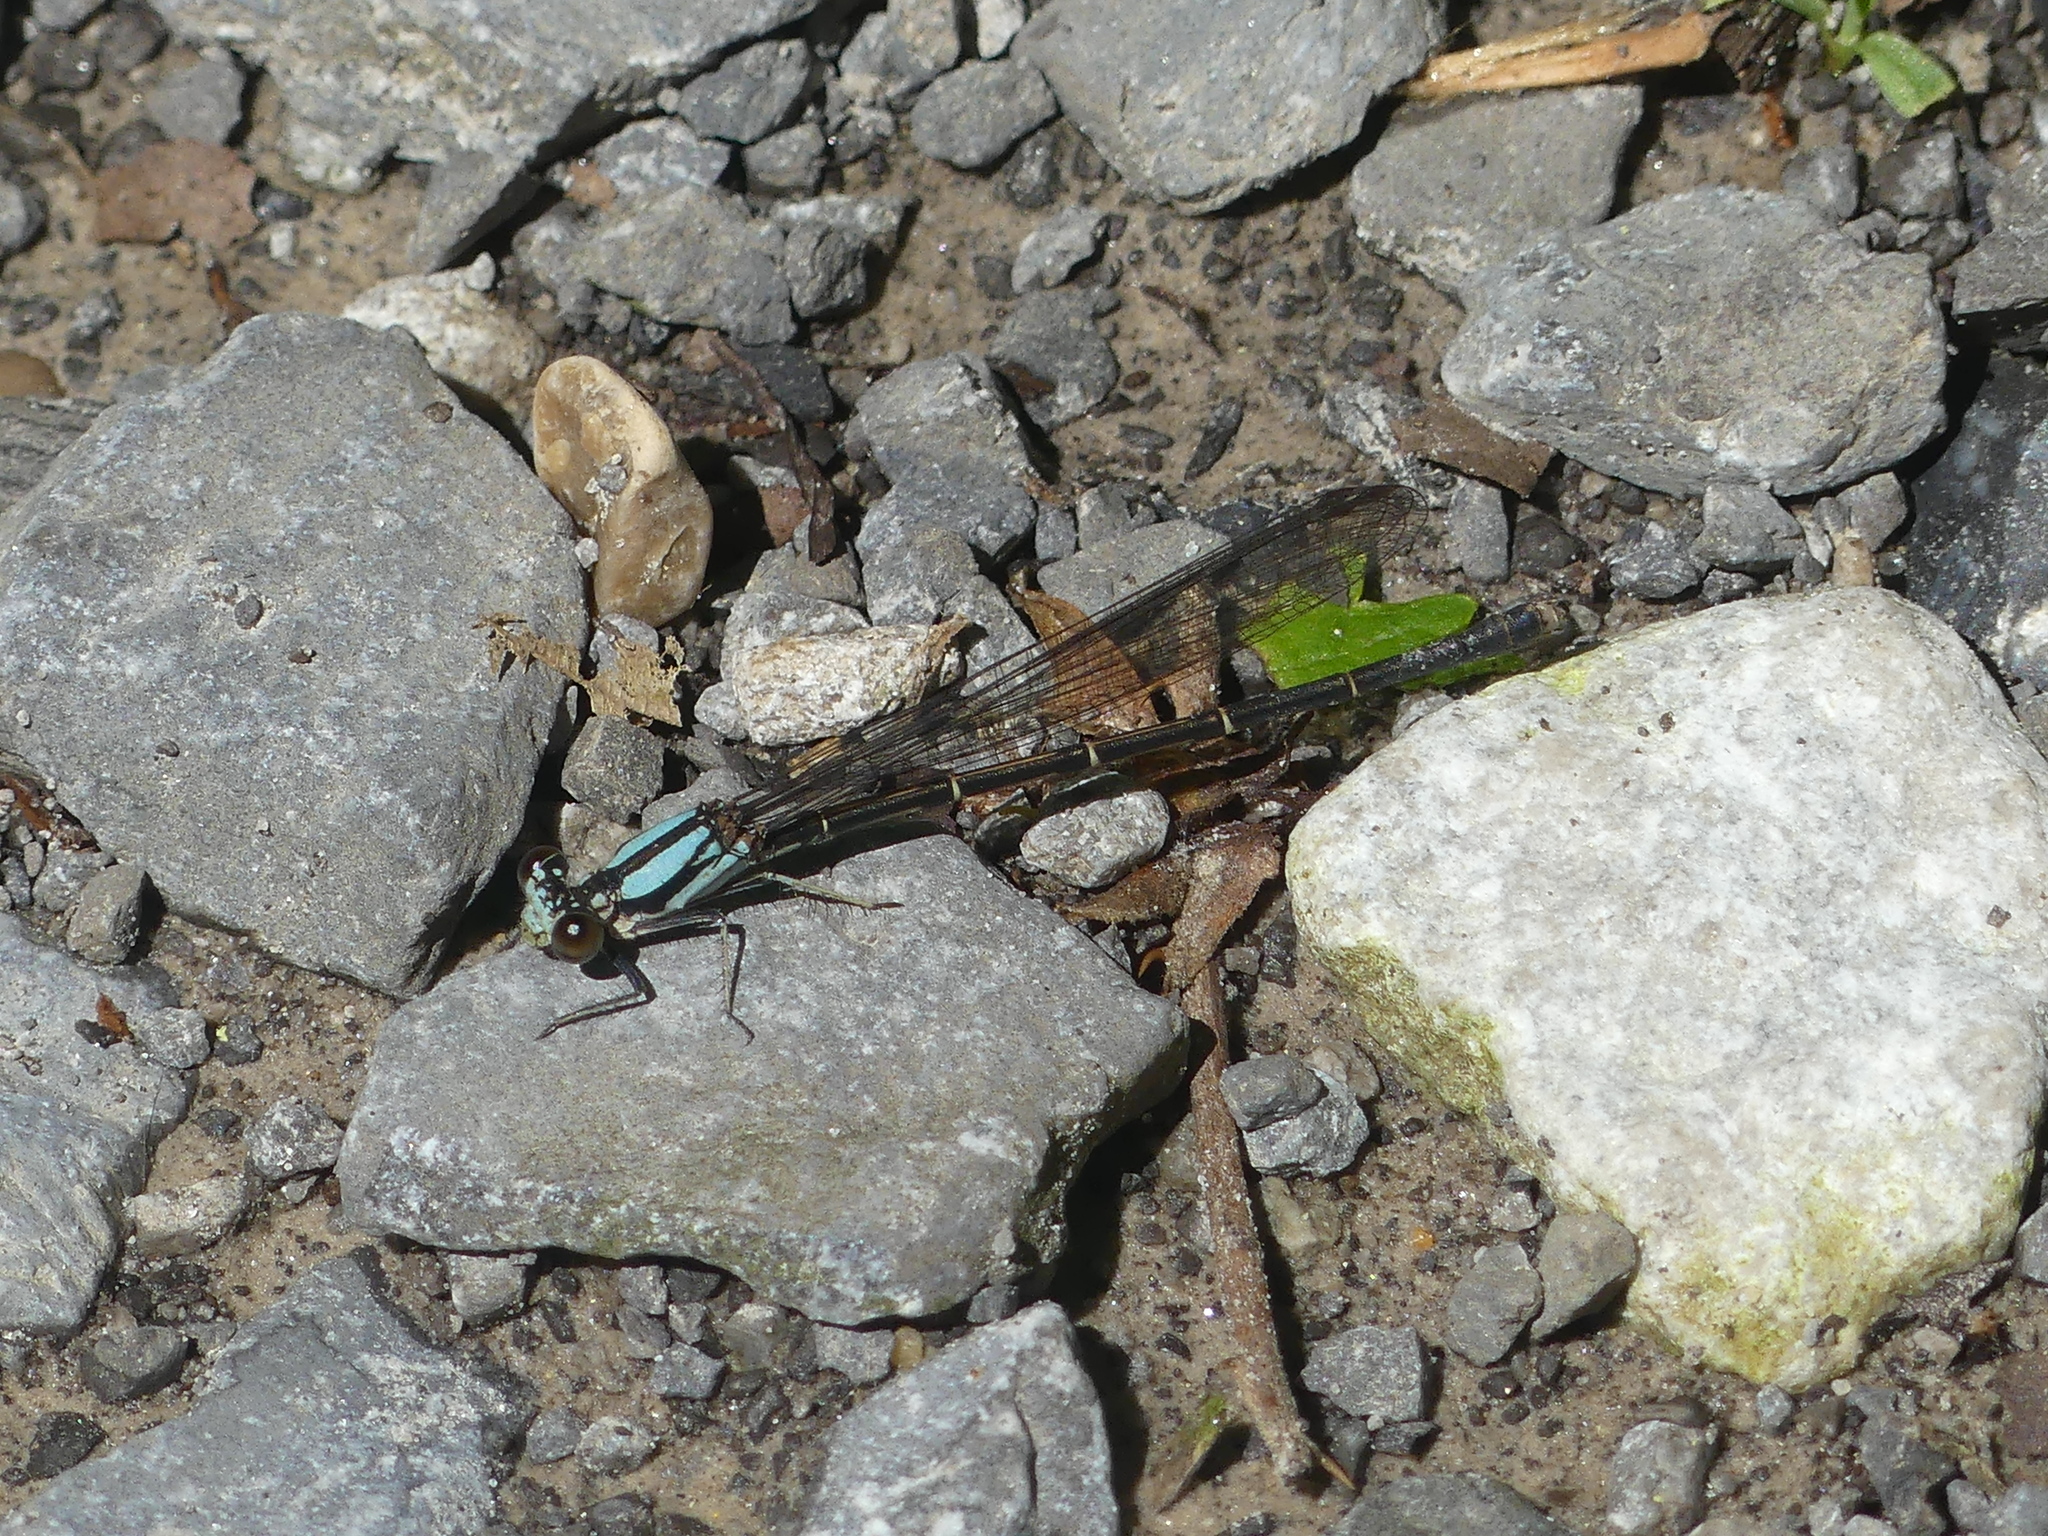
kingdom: Animalia
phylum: Arthropoda
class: Insecta
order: Odonata
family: Coenagrionidae
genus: Argia
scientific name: Argia tibialis
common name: Blue-tipped dancer
